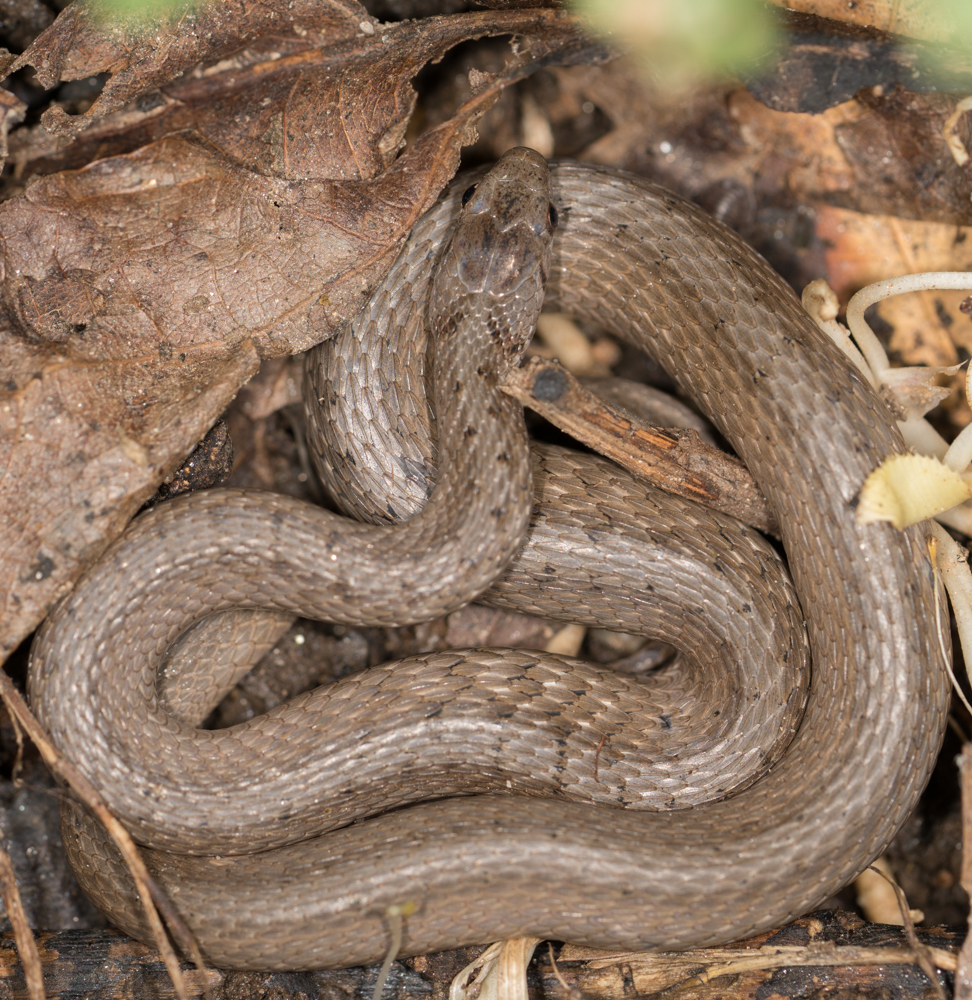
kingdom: Animalia
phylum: Chordata
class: Squamata
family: Colubridae
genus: Storeria
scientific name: Storeria dekayi
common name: (dekay’s) brown snake
